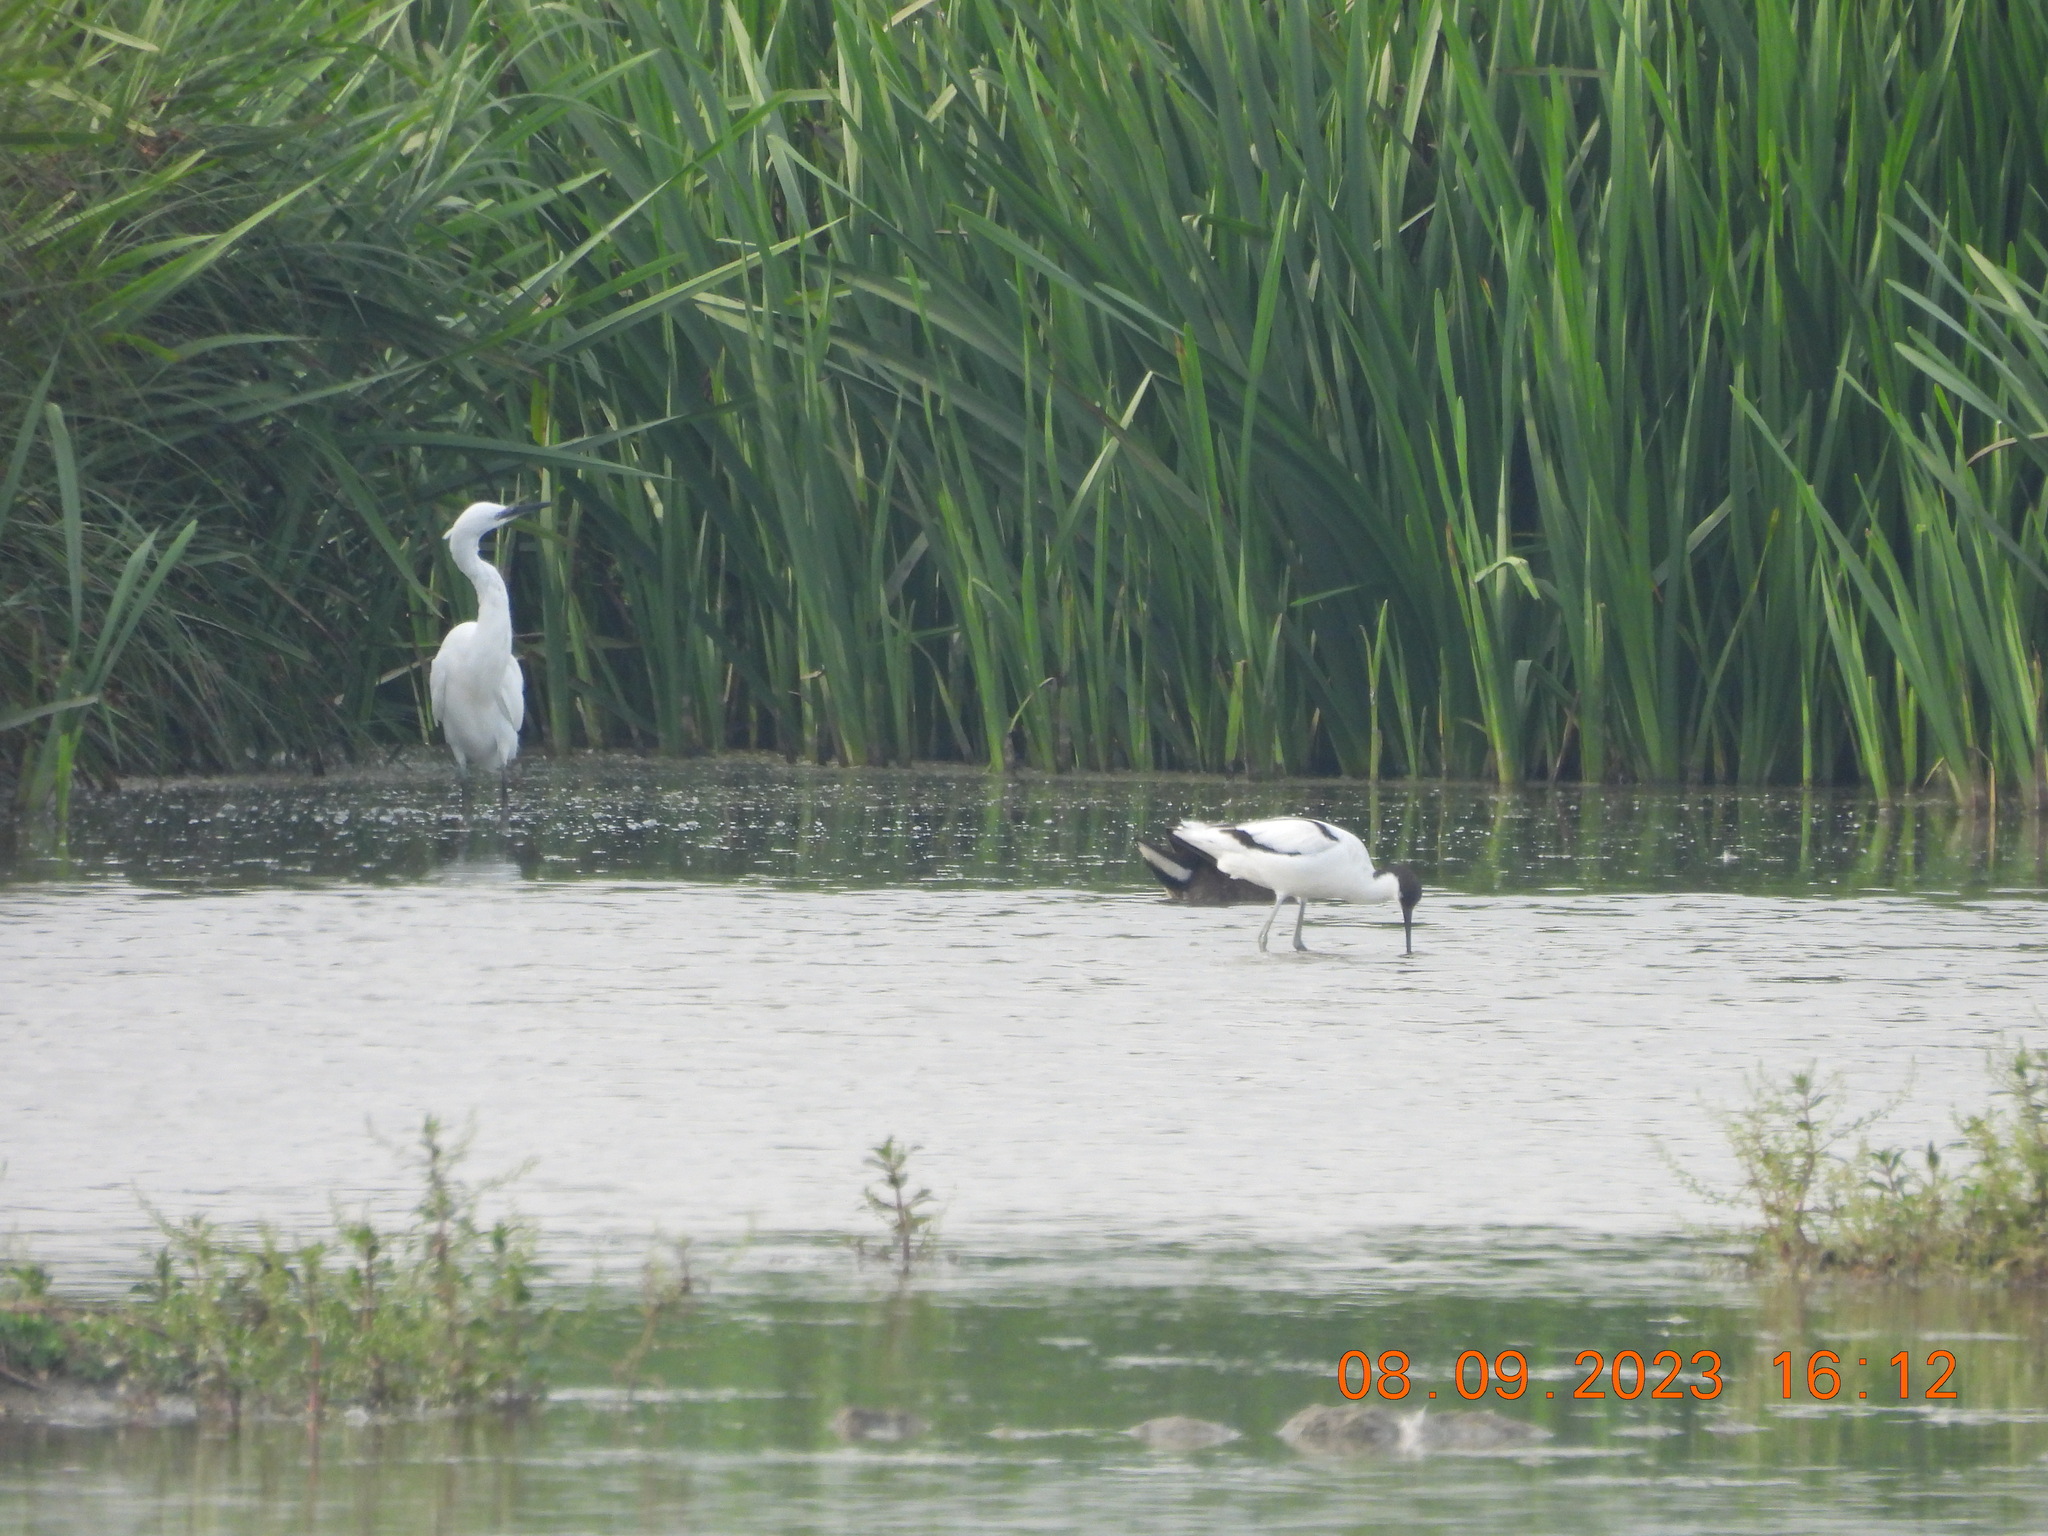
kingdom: Animalia
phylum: Chordata
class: Aves
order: Charadriiformes
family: Recurvirostridae
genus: Recurvirostra
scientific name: Recurvirostra avosetta
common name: Pied avocet
